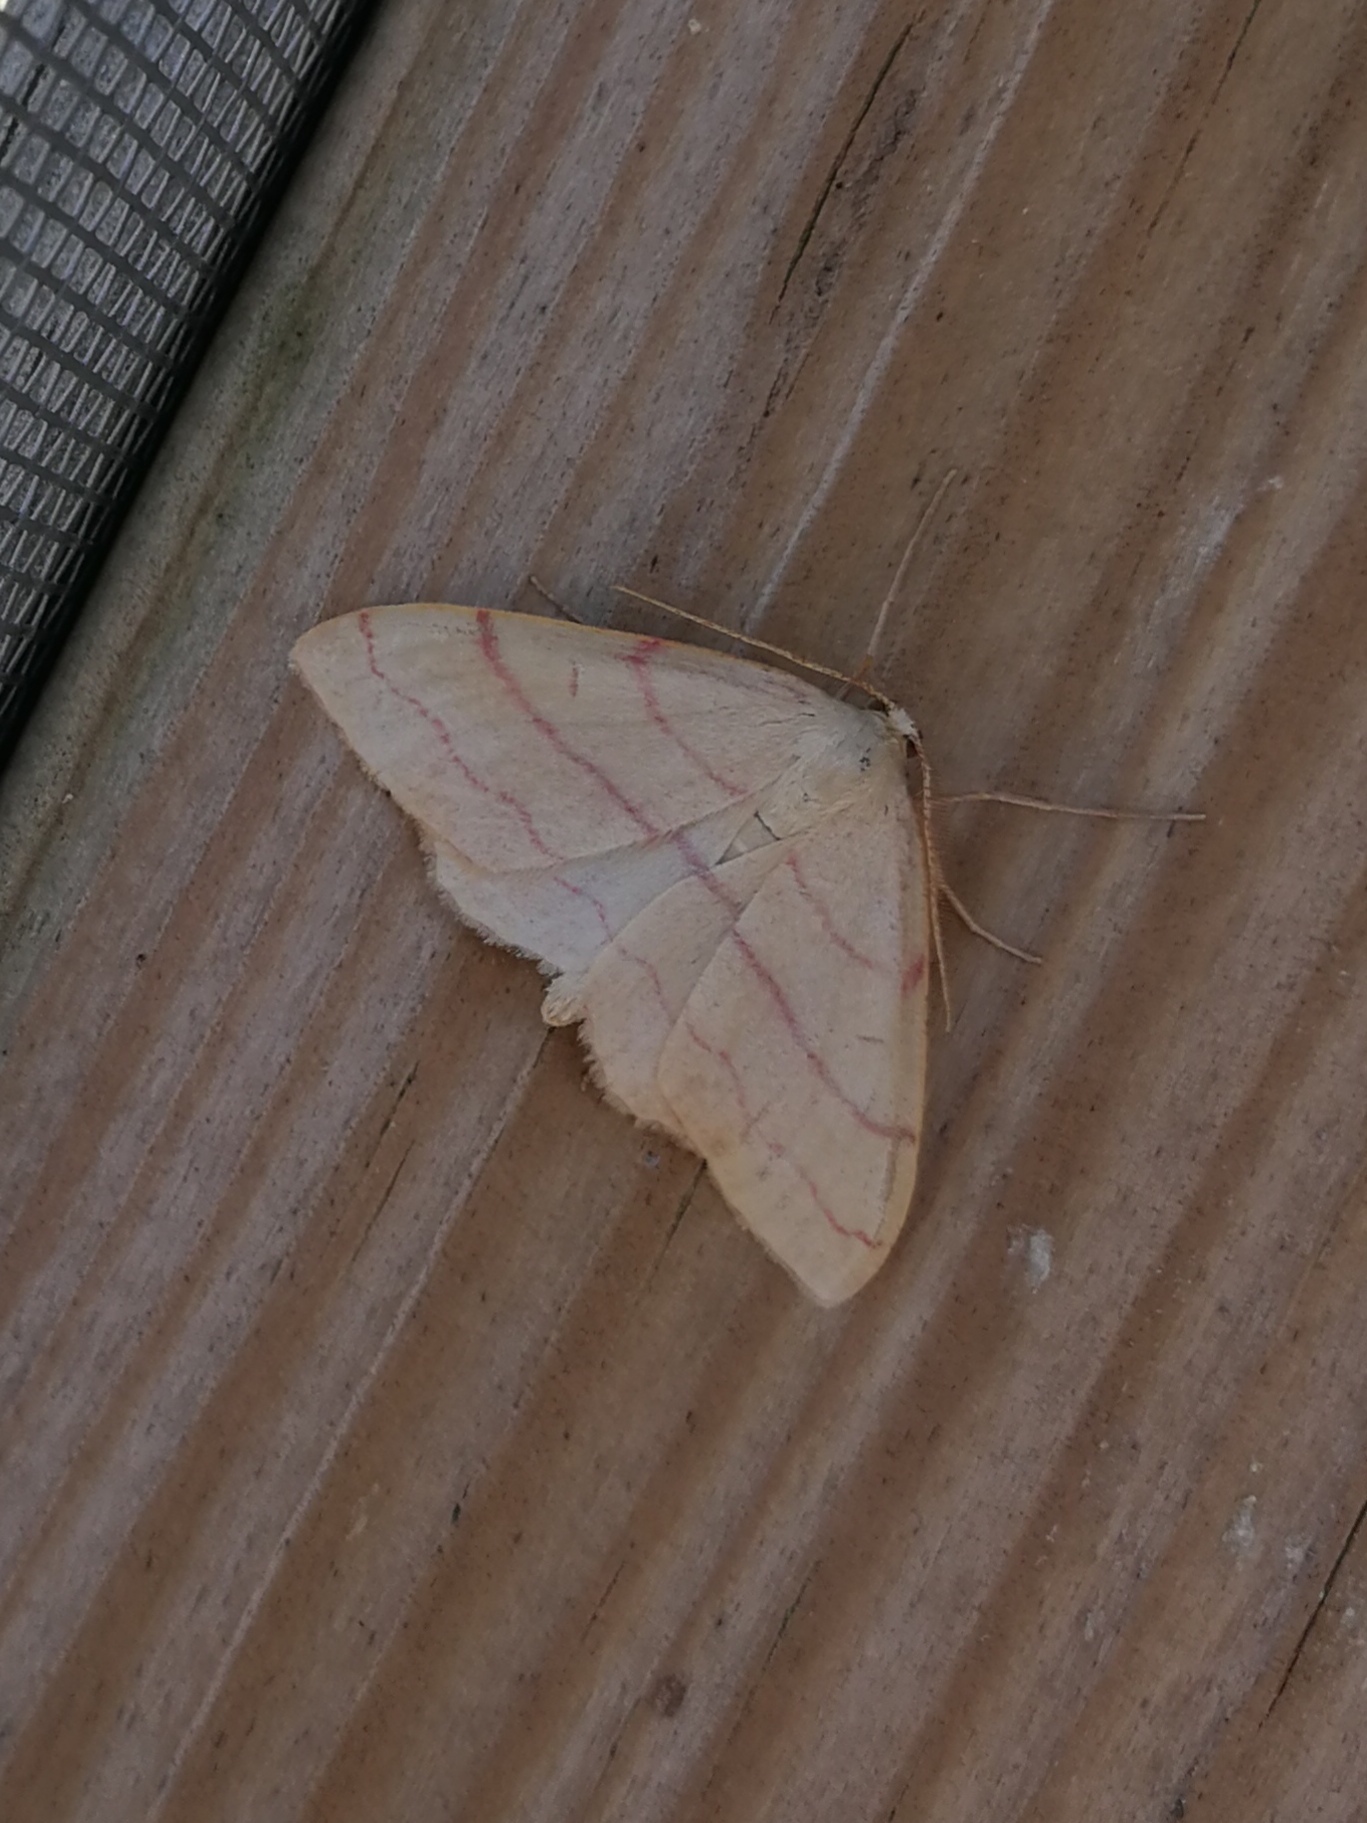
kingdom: Animalia
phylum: Arthropoda
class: Insecta
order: Lepidoptera
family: Geometridae
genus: Rhodostrophia
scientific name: Rhodostrophia vibicaria
